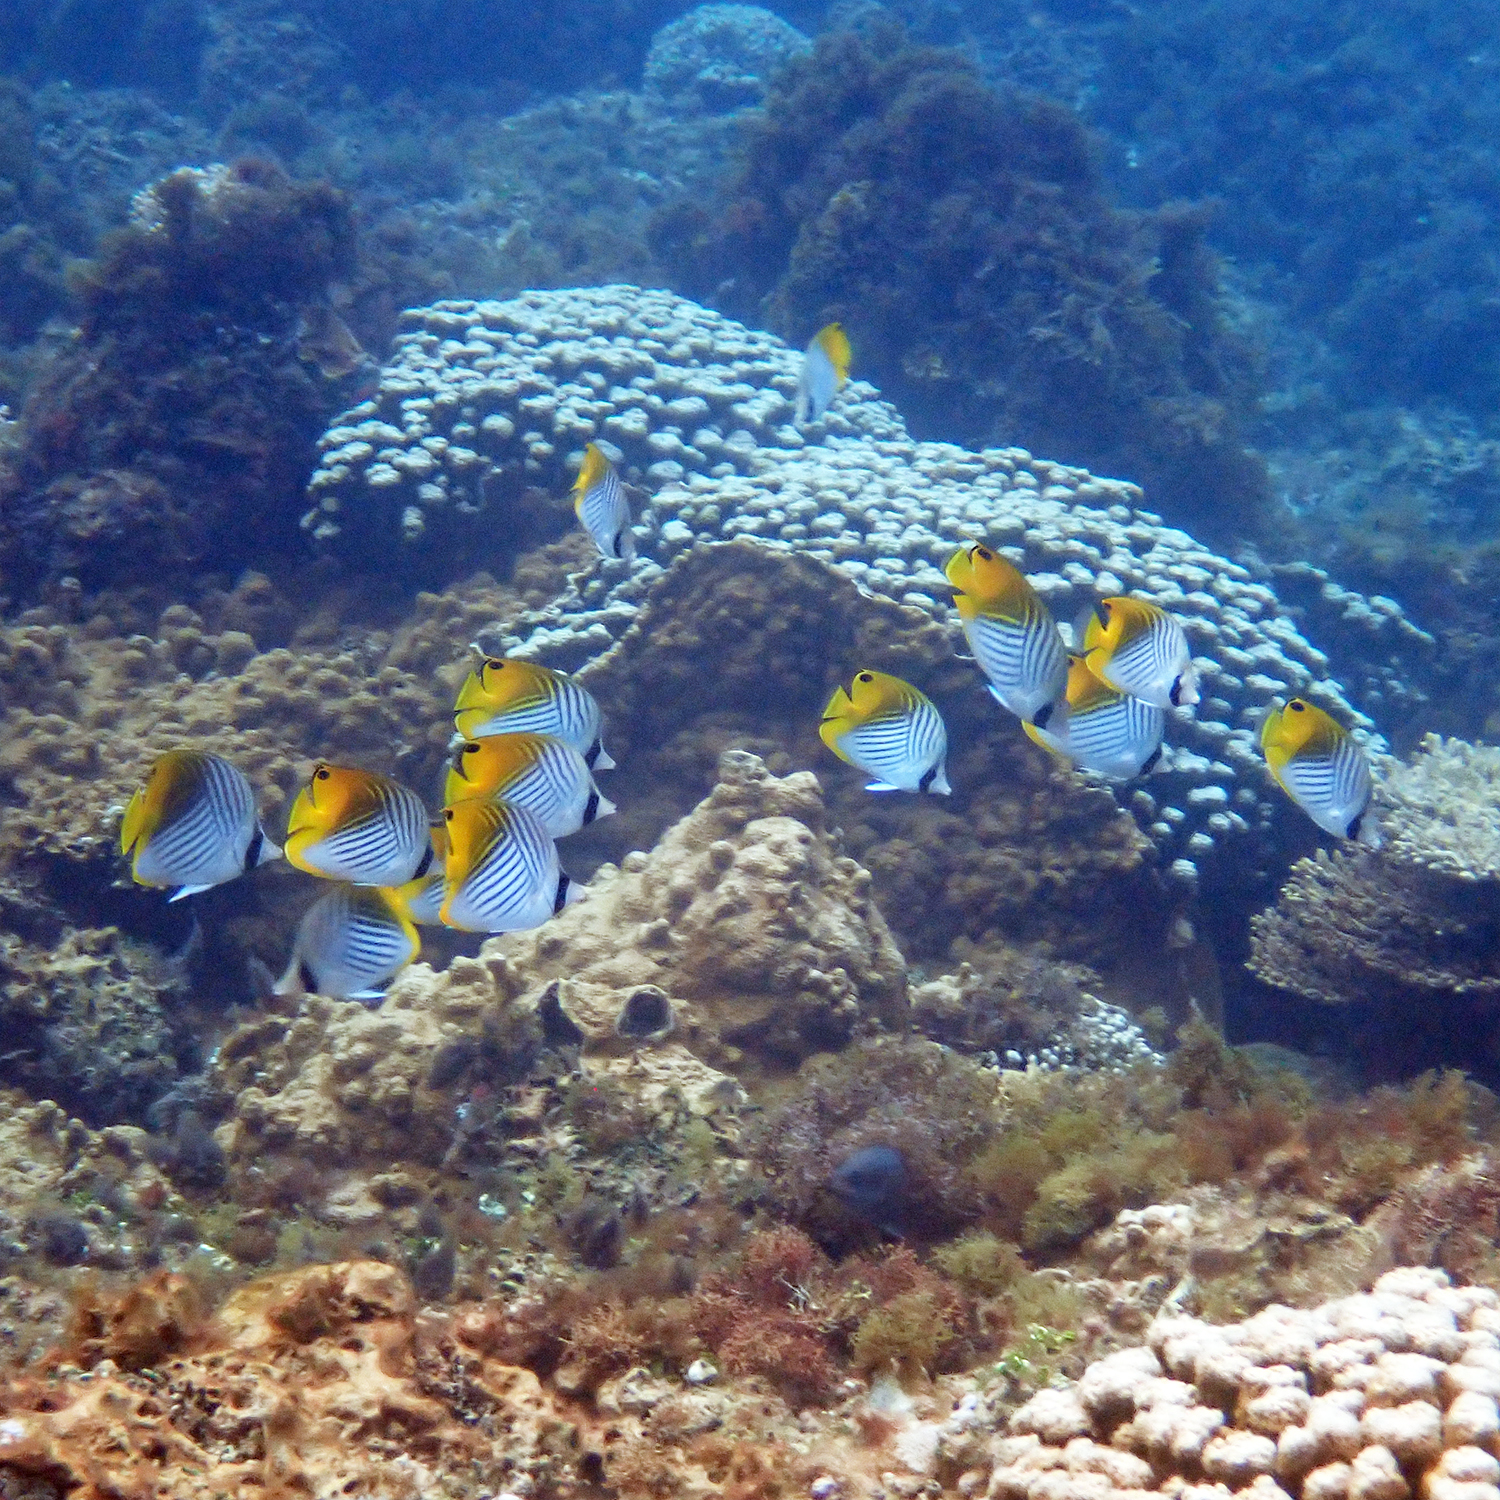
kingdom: Animalia
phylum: Chordata
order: Perciformes
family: Chaetodontidae
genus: Chaetodon
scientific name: Chaetodon auriga
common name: Threadfin butterflyfish
